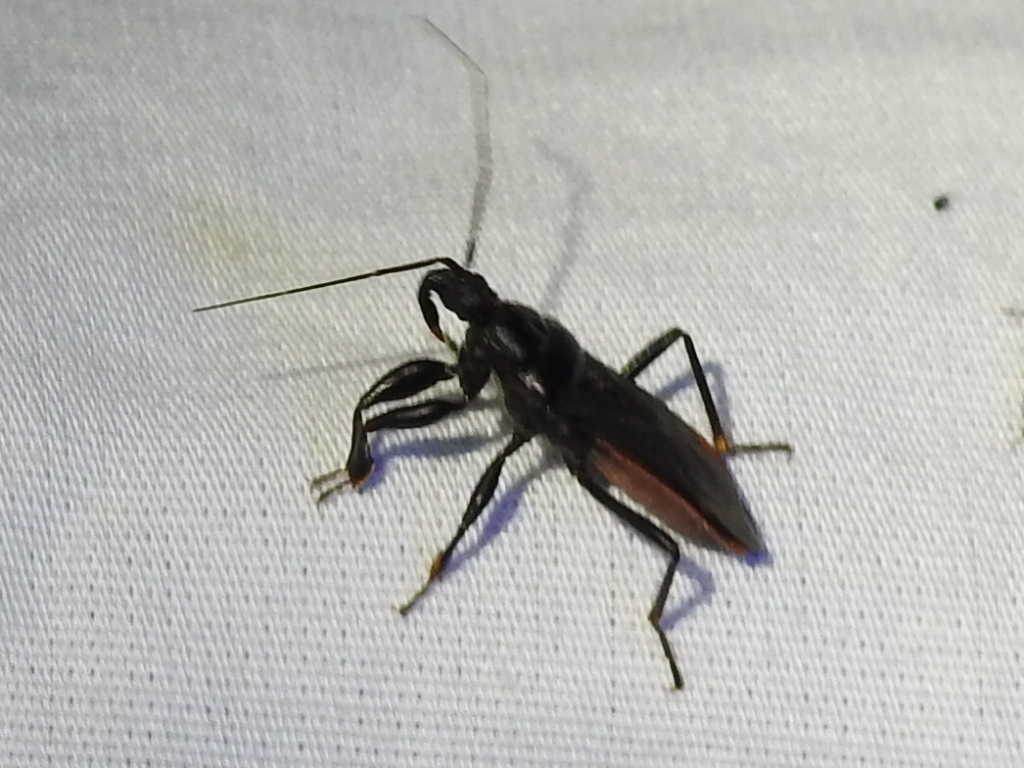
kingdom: Animalia
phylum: Arthropoda
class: Insecta
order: Hemiptera
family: Reduviidae
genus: Melanolestes
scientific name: Melanolestes picipes
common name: Assassin bug
